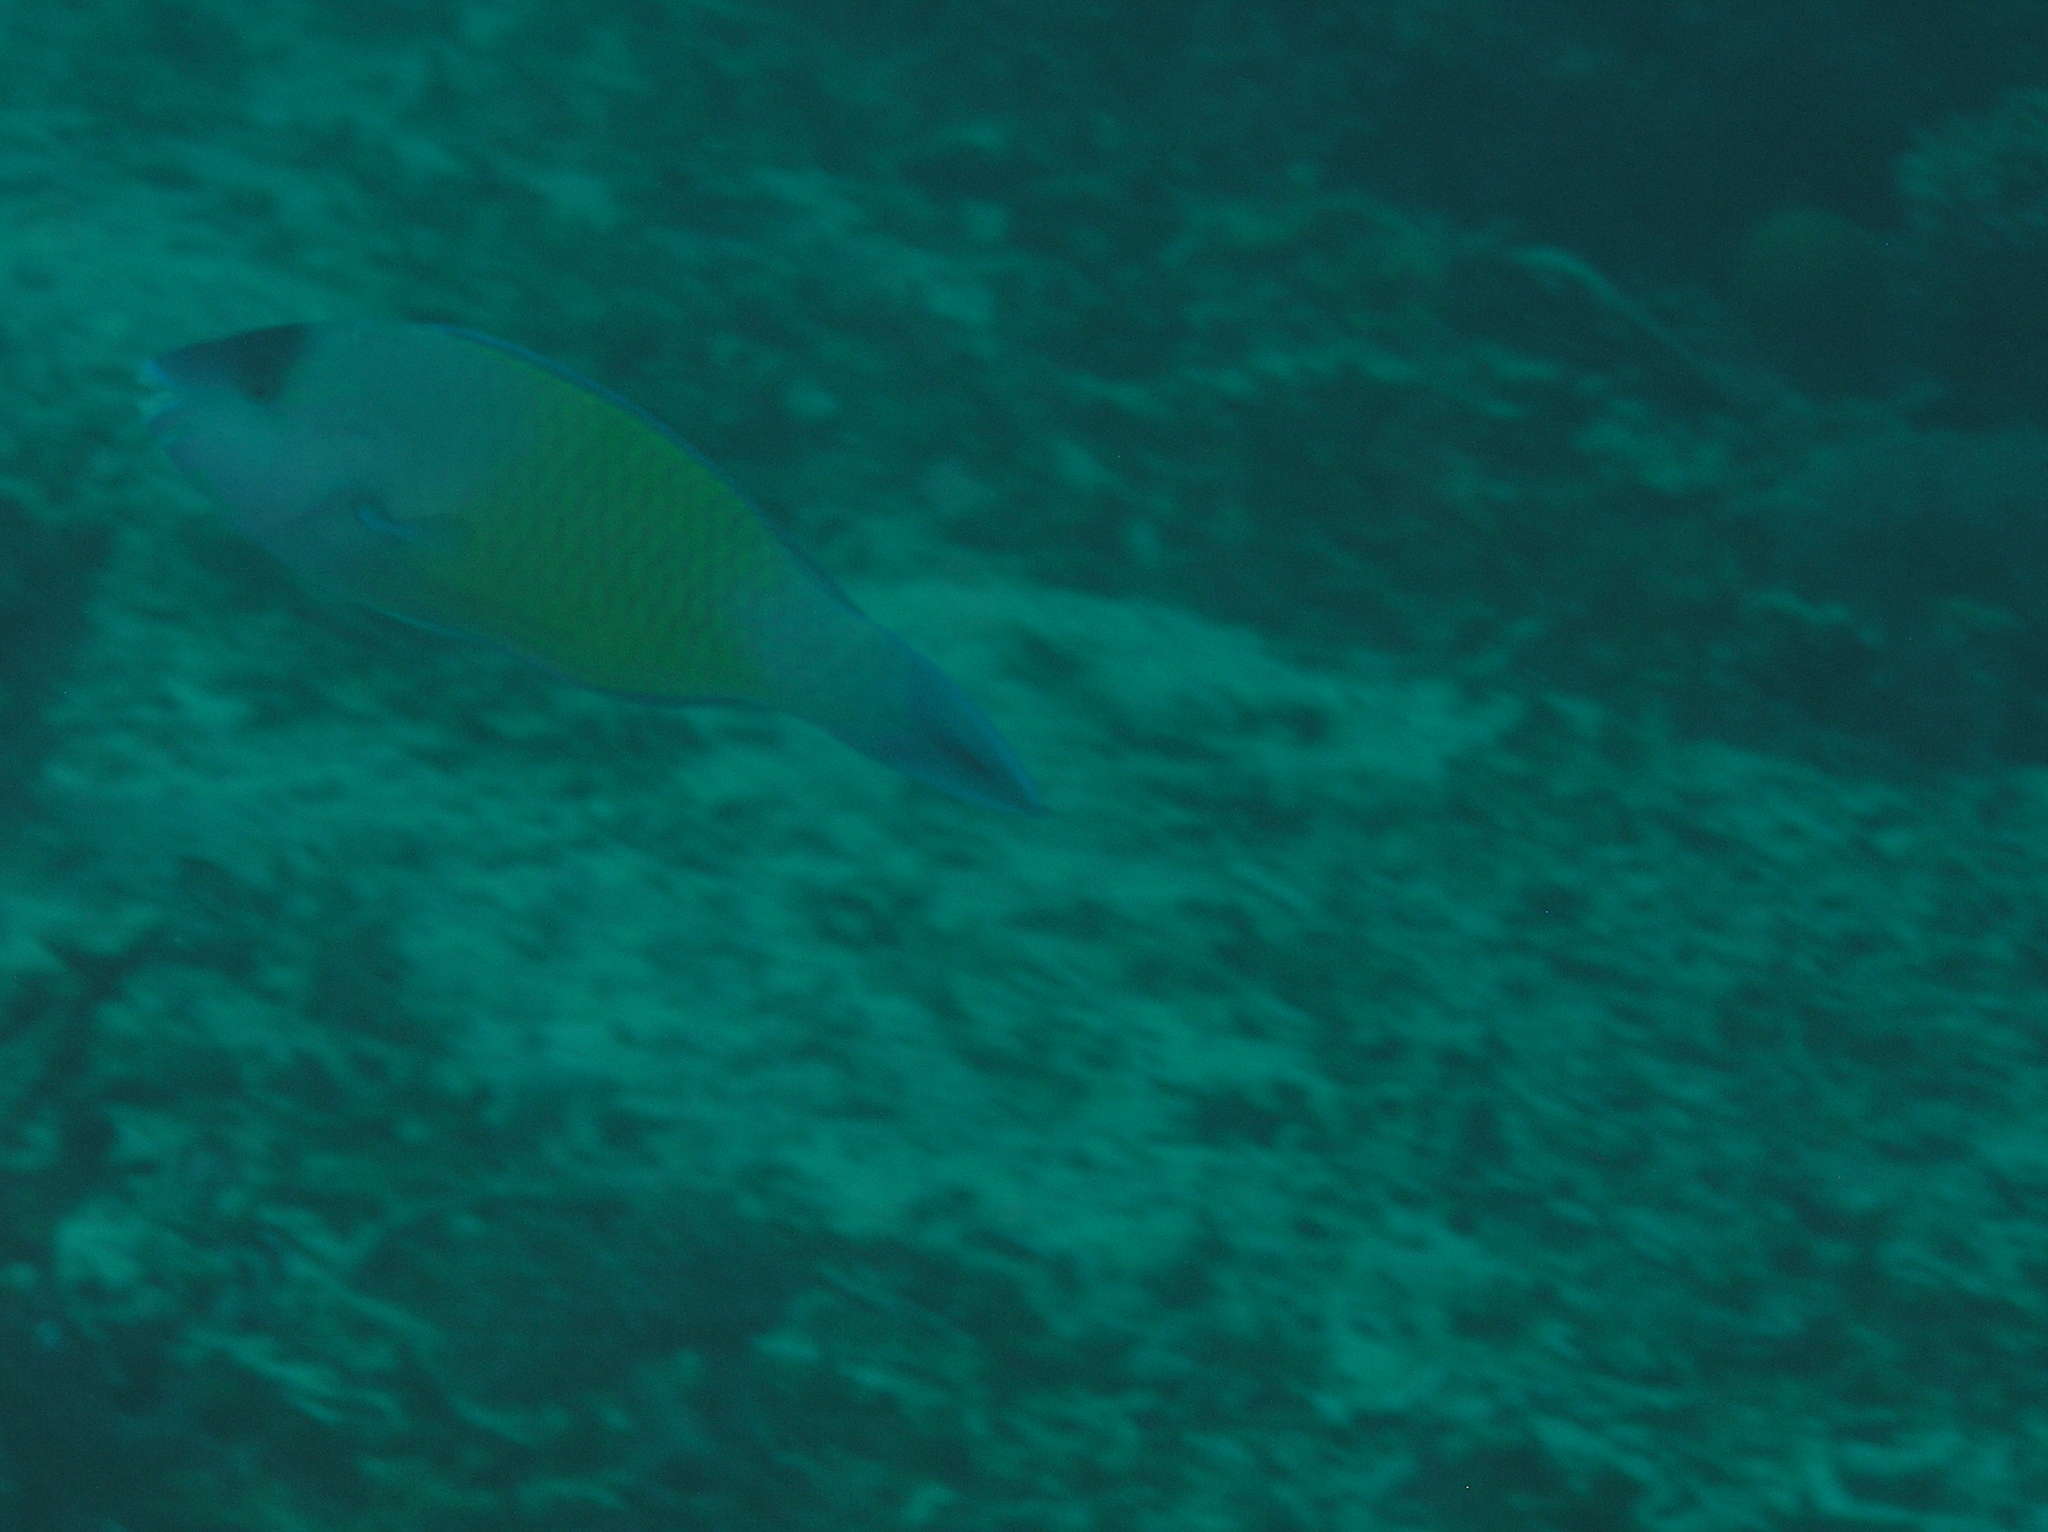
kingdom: Animalia
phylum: Chordata
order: Perciformes
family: Scaridae
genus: Scarus
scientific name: Scarus psittacus
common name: Palenose parrotfish
